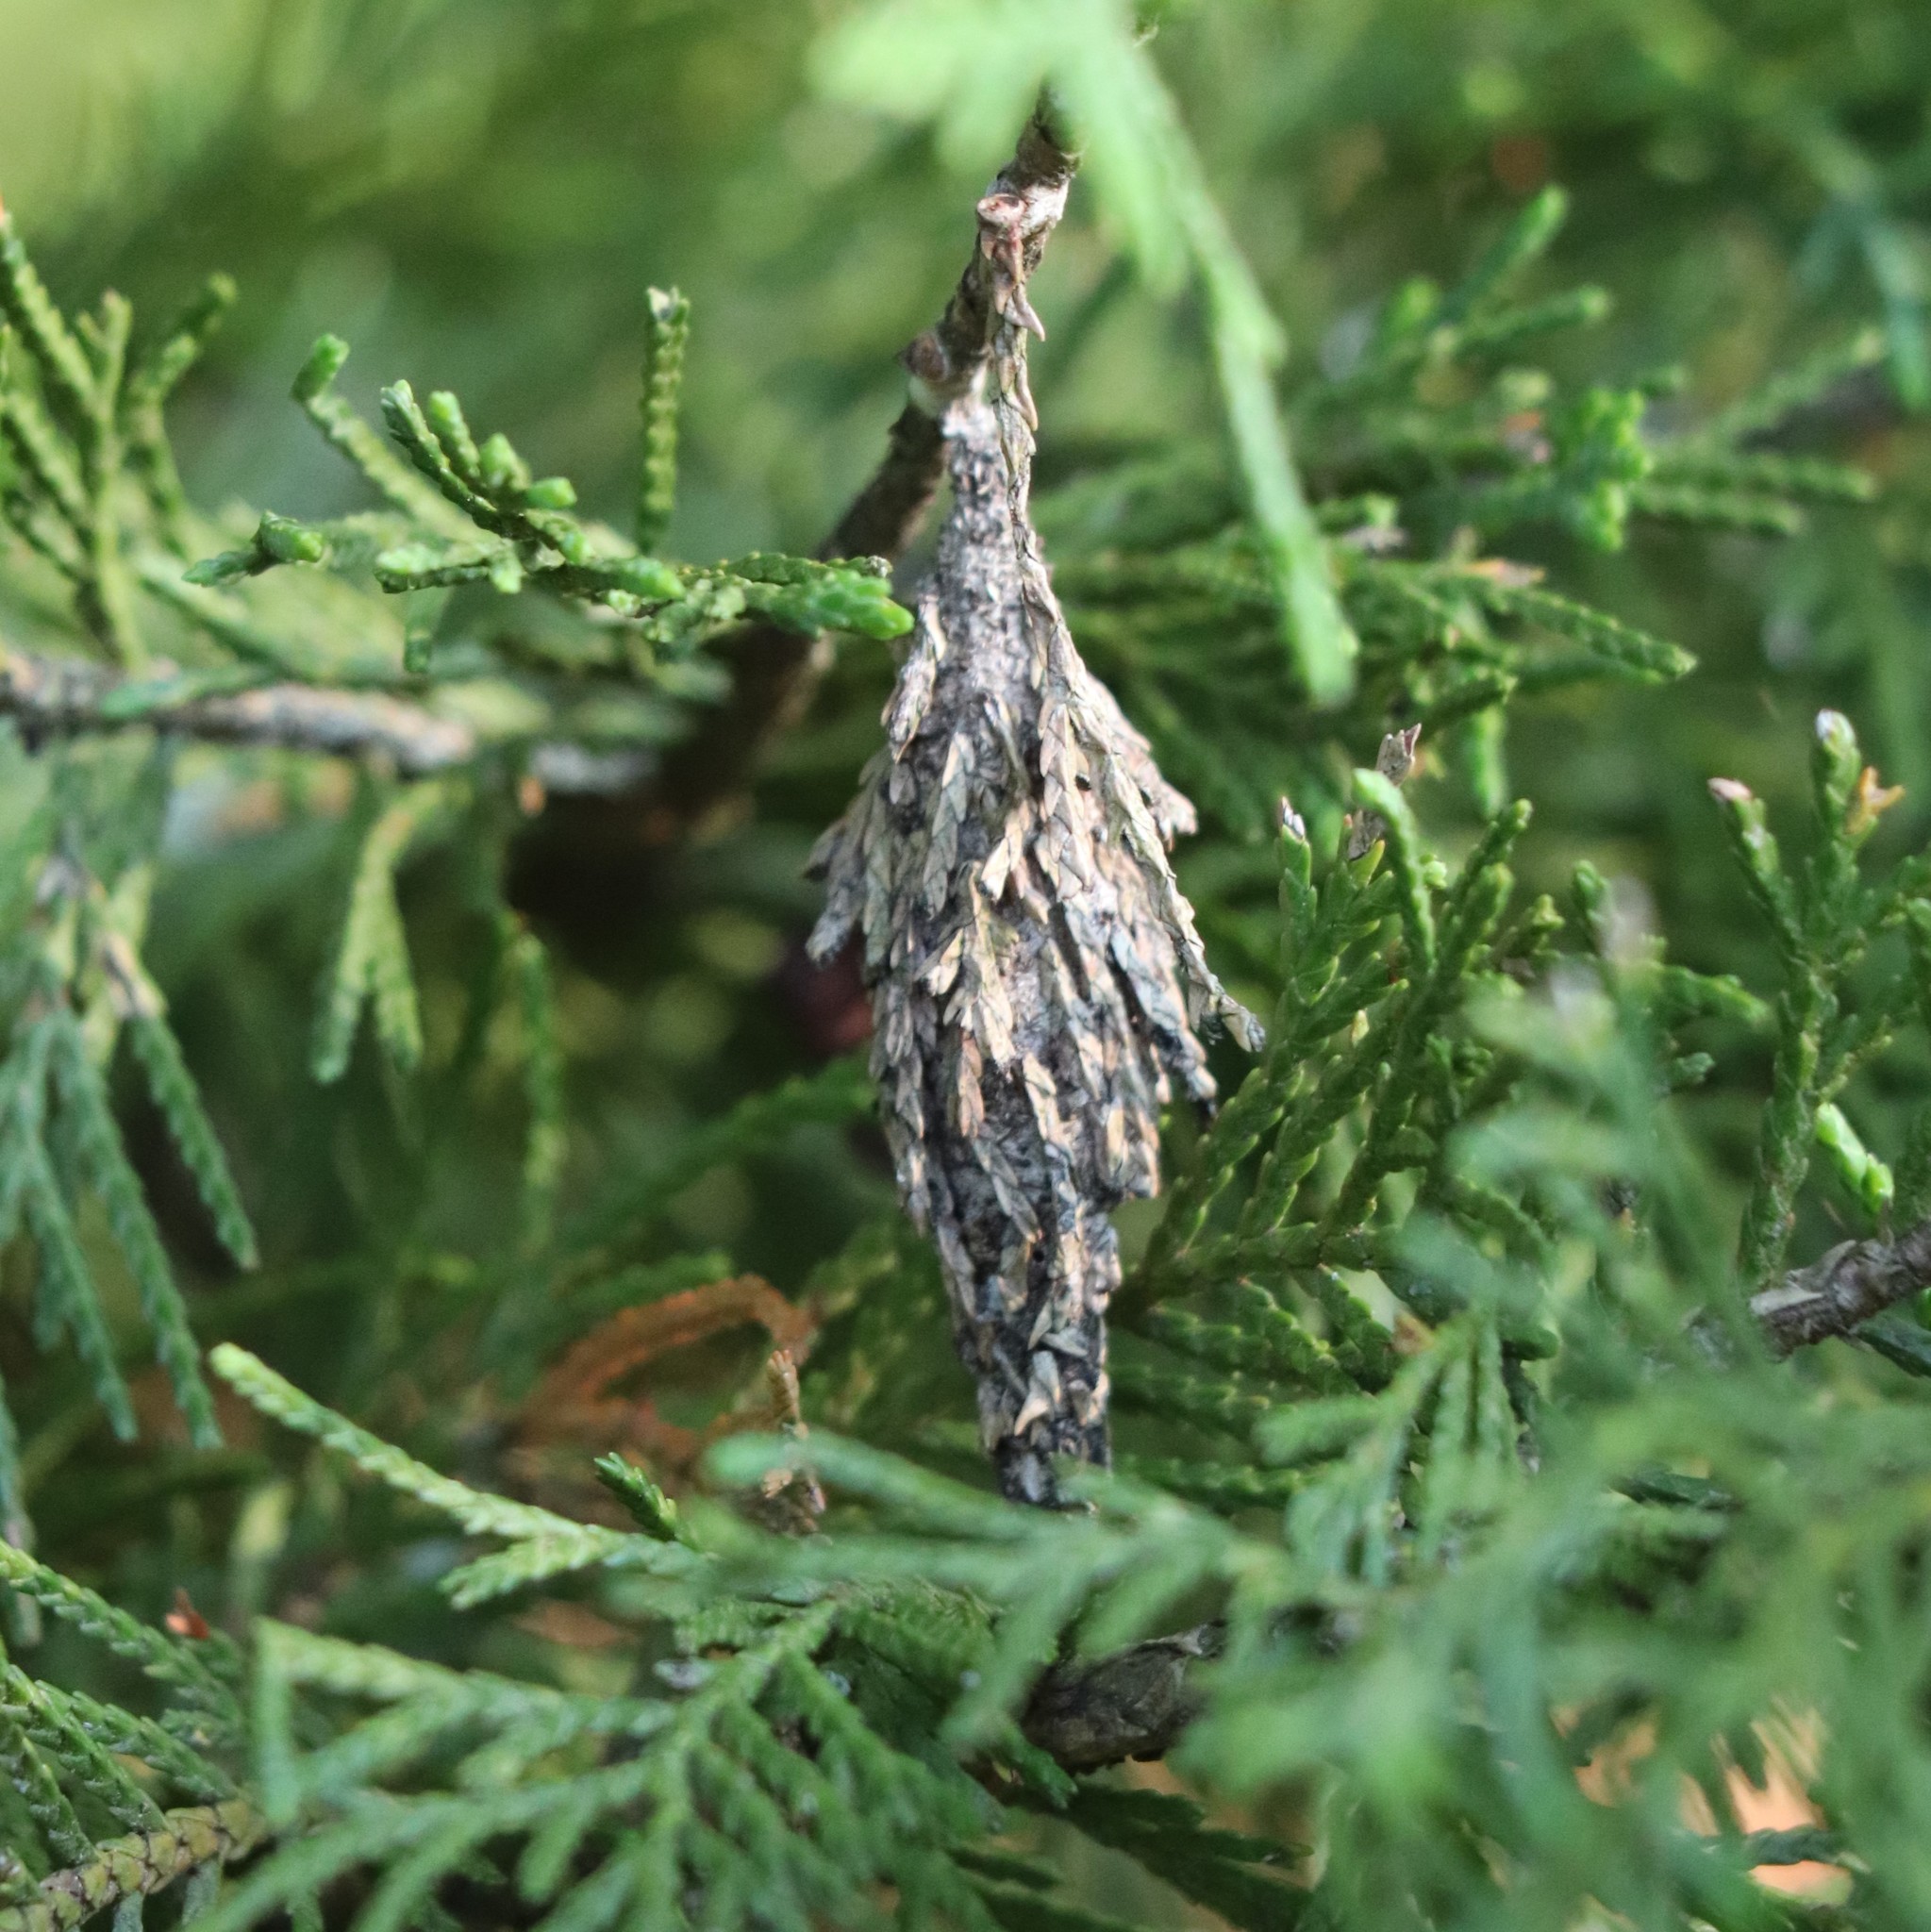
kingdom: Animalia
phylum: Arthropoda
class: Insecta
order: Lepidoptera
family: Psychidae
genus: Thyridopteryx
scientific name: Thyridopteryx ephemeraeformis
